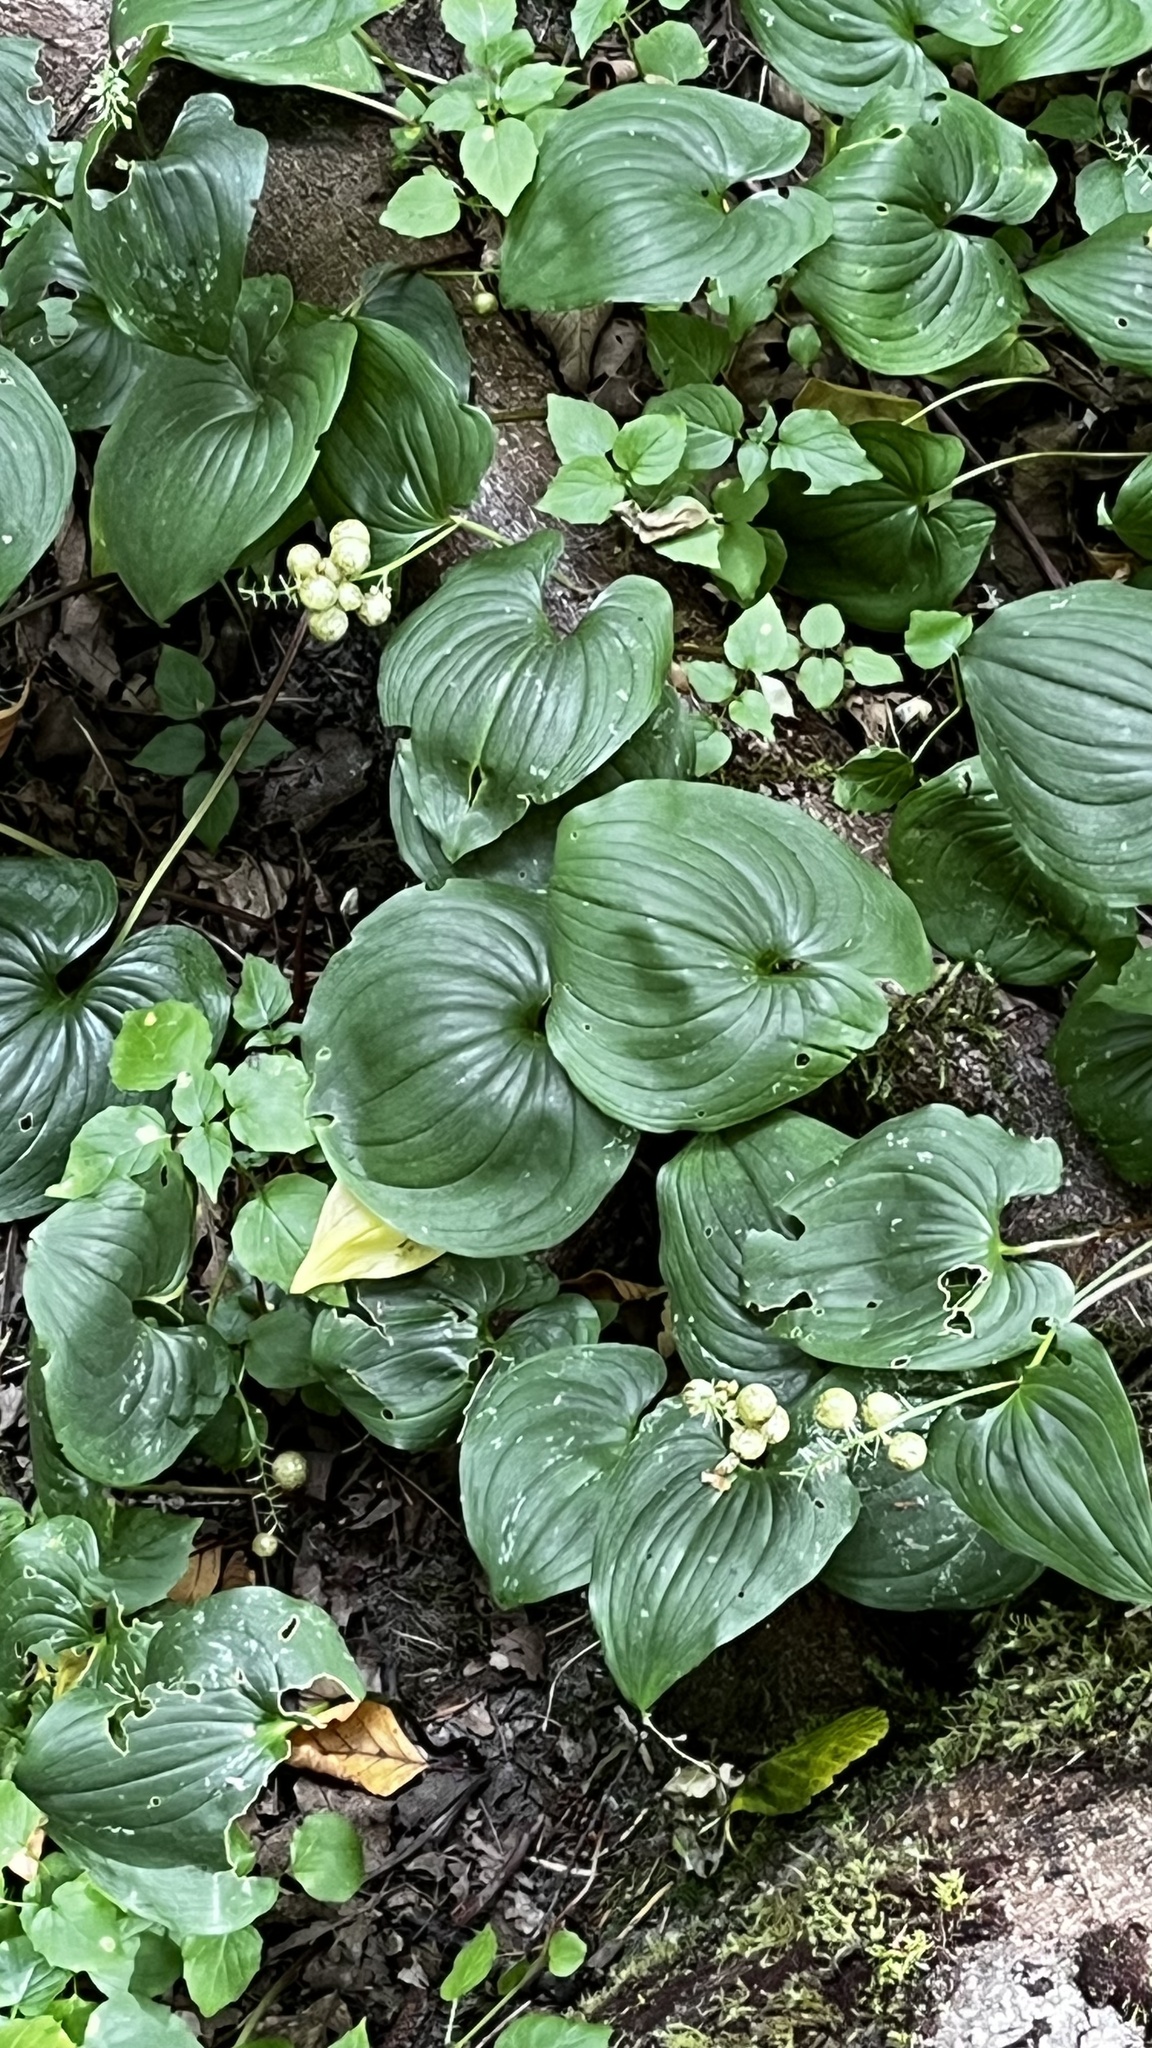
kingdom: Plantae
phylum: Tracheophyta
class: Liliopsida
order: Asparagales
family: Asparagaceae
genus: Maianthemum
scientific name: Maianthemum dilatatum
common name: False lily-of-the-valley
